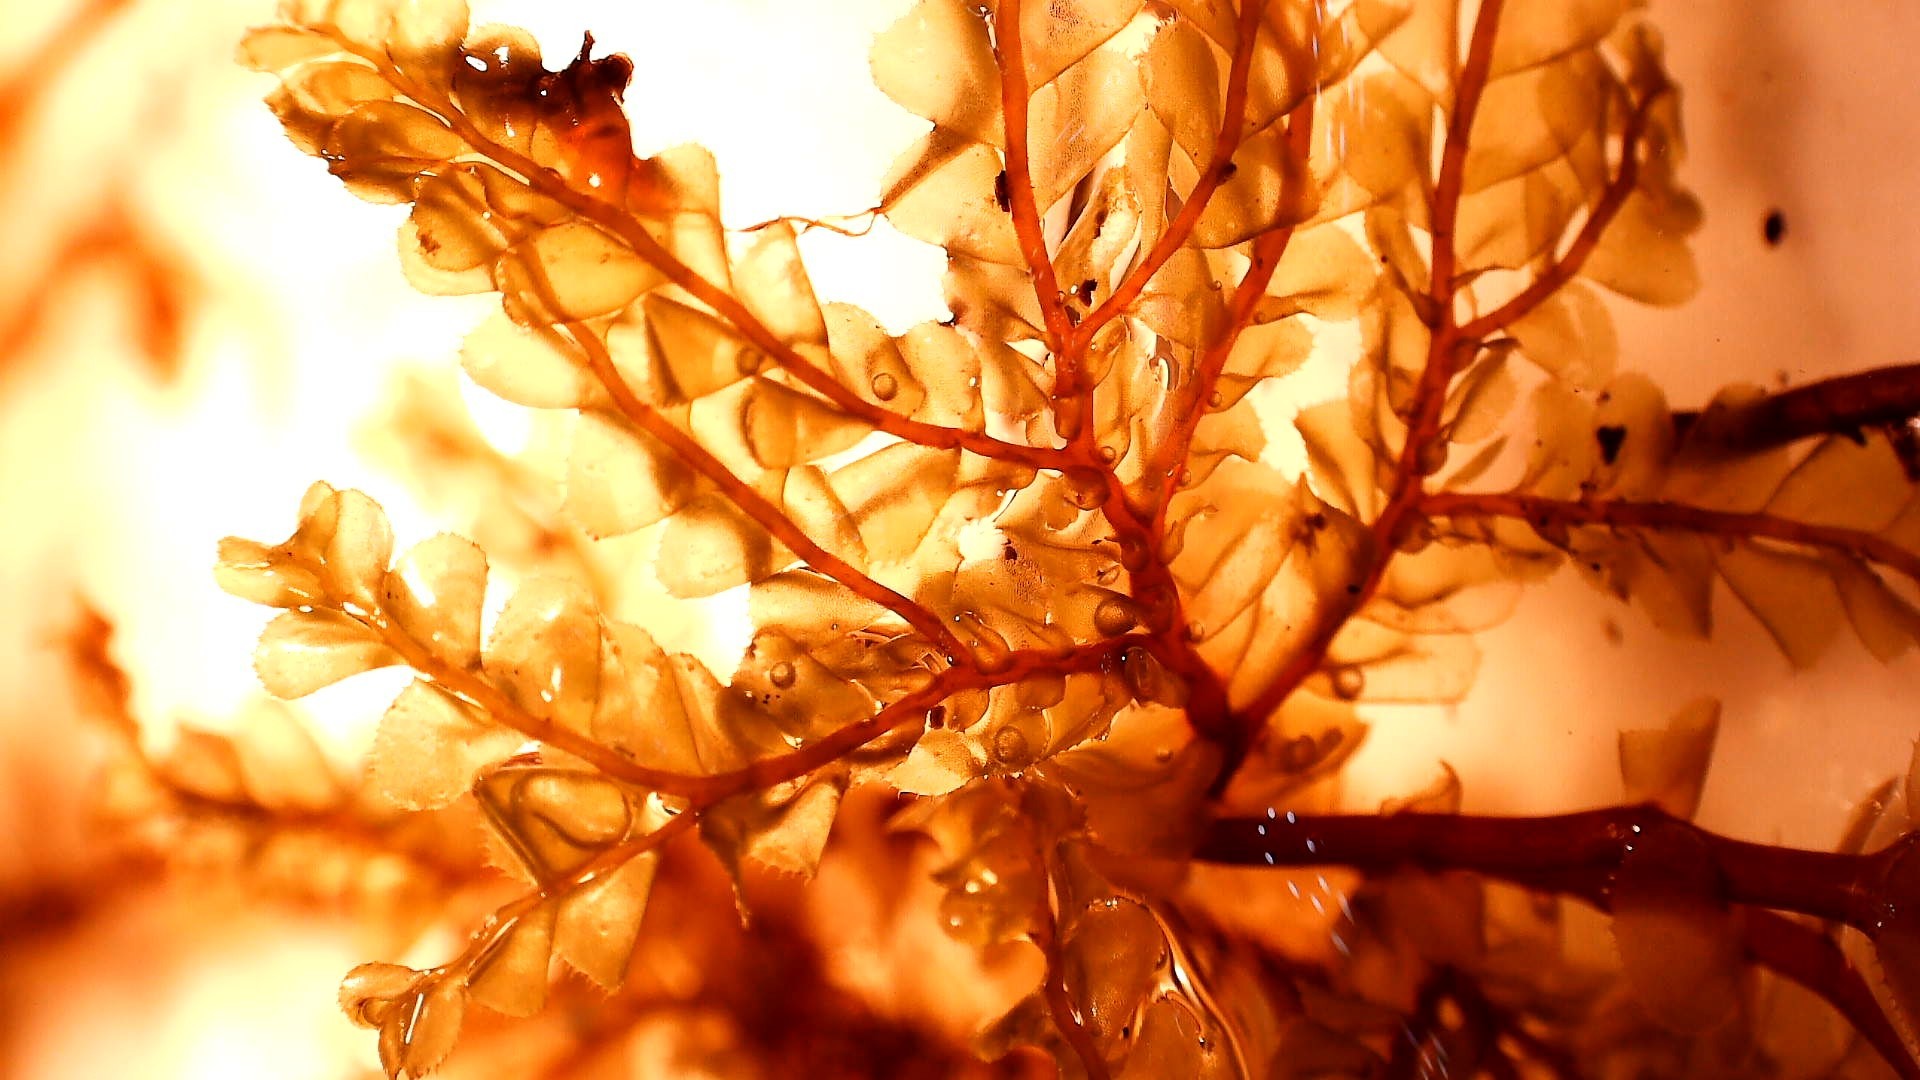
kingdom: Plantae
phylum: Marchantiophyta
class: Jungermanniopsida
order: Jungermanniales
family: Plagiochilaceae
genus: Plagiochila
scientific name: Plagiochila gigantea
